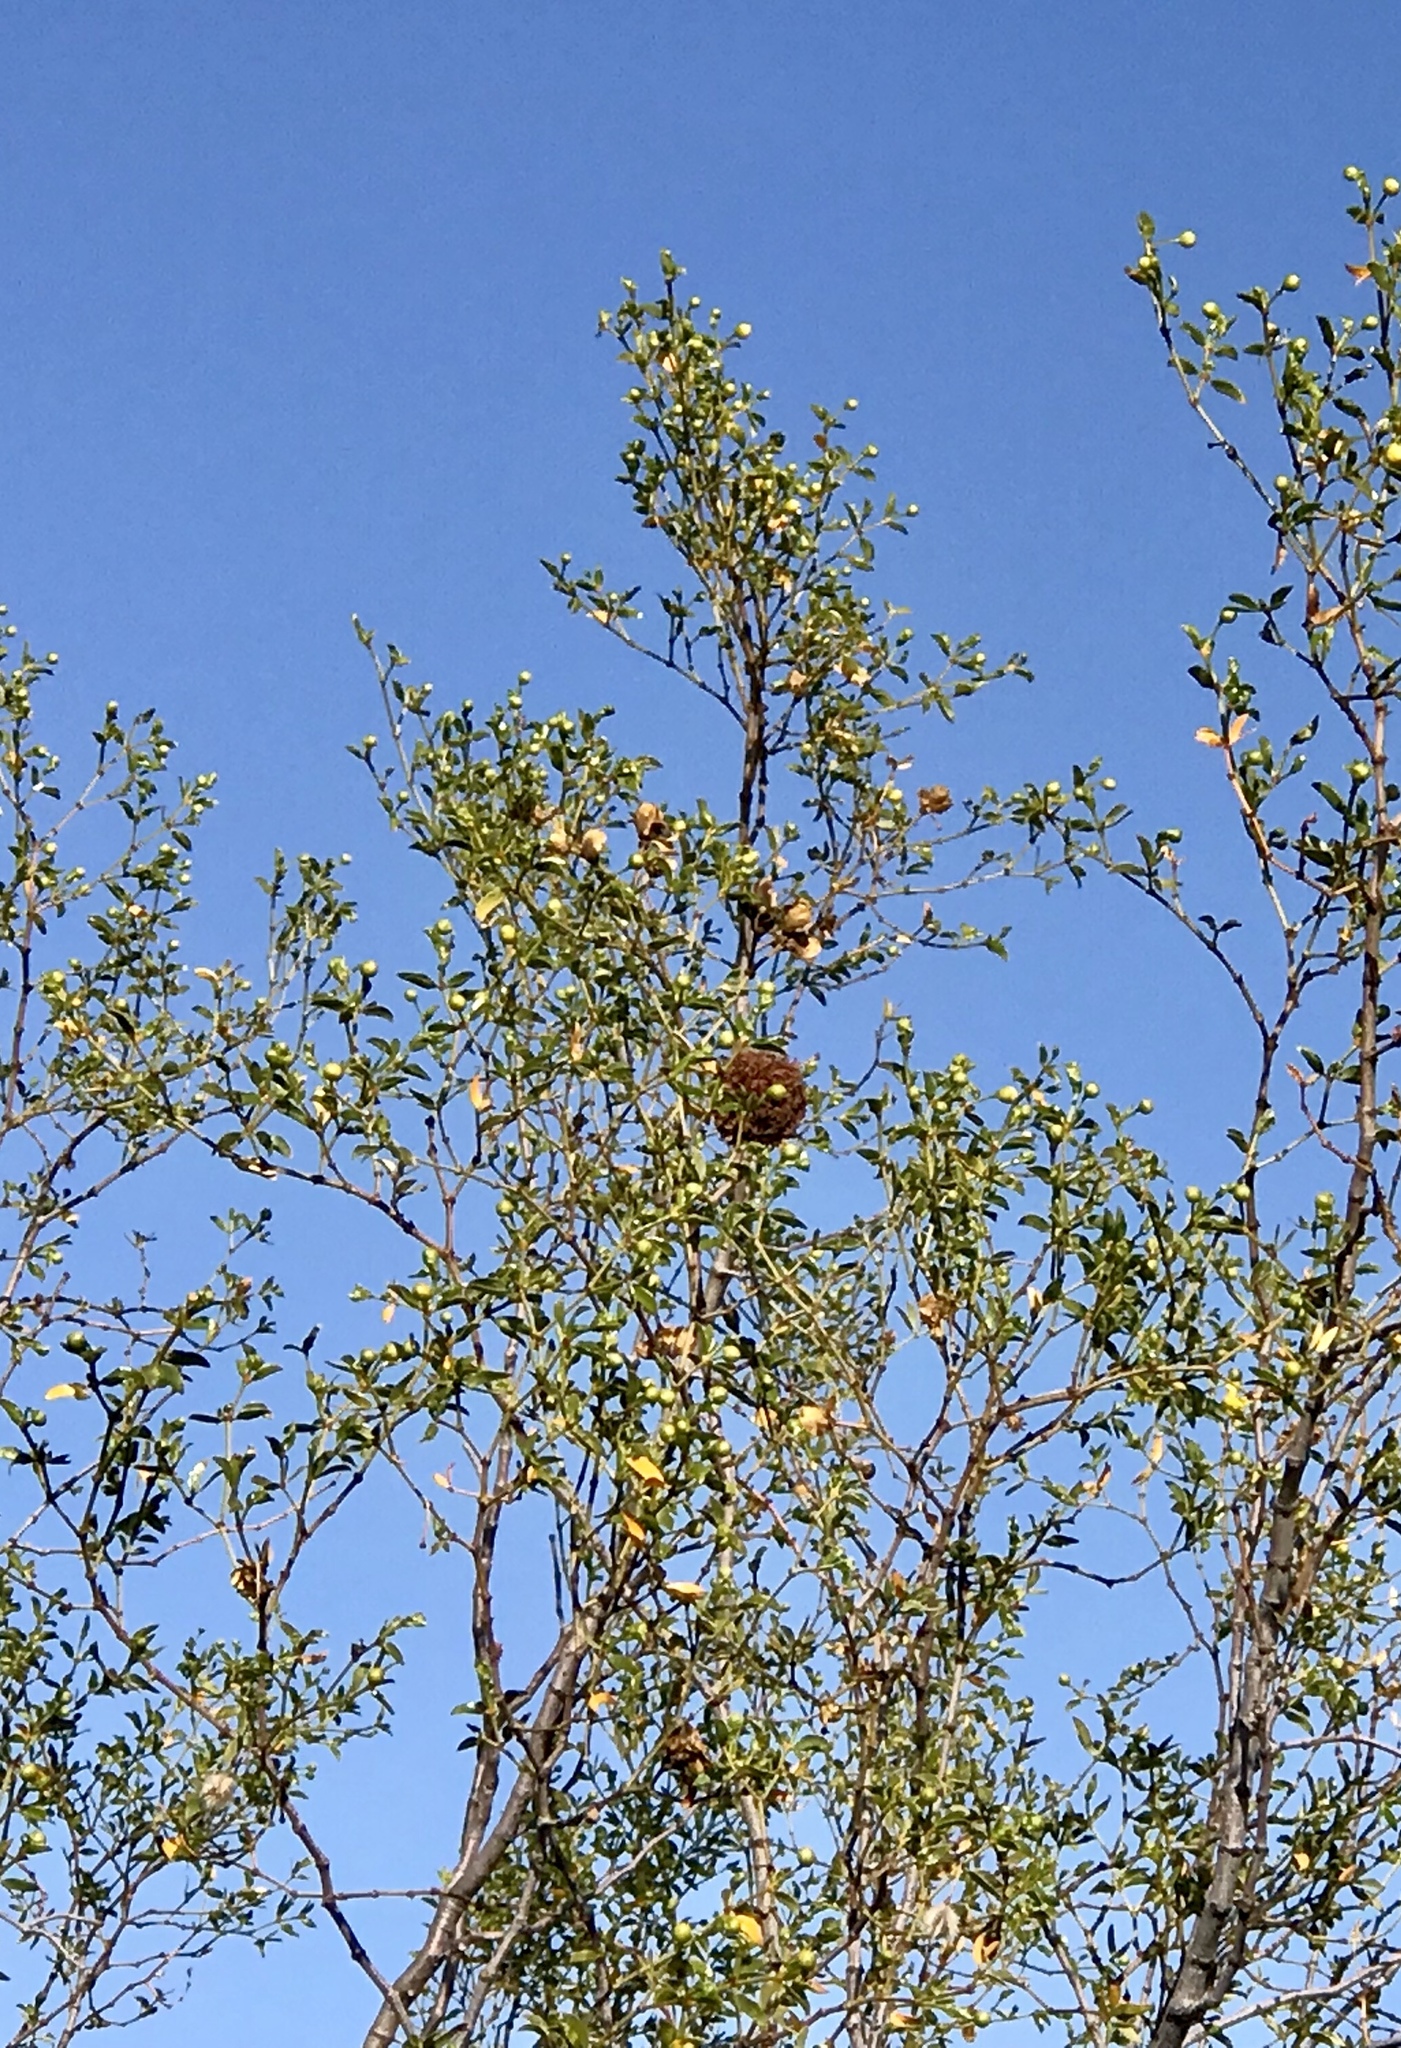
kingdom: Animalia
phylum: Arthropoda
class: Insecta
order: Diptera
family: Cecidomyiidae
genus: Asphondylia
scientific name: Asphondylia auripila
